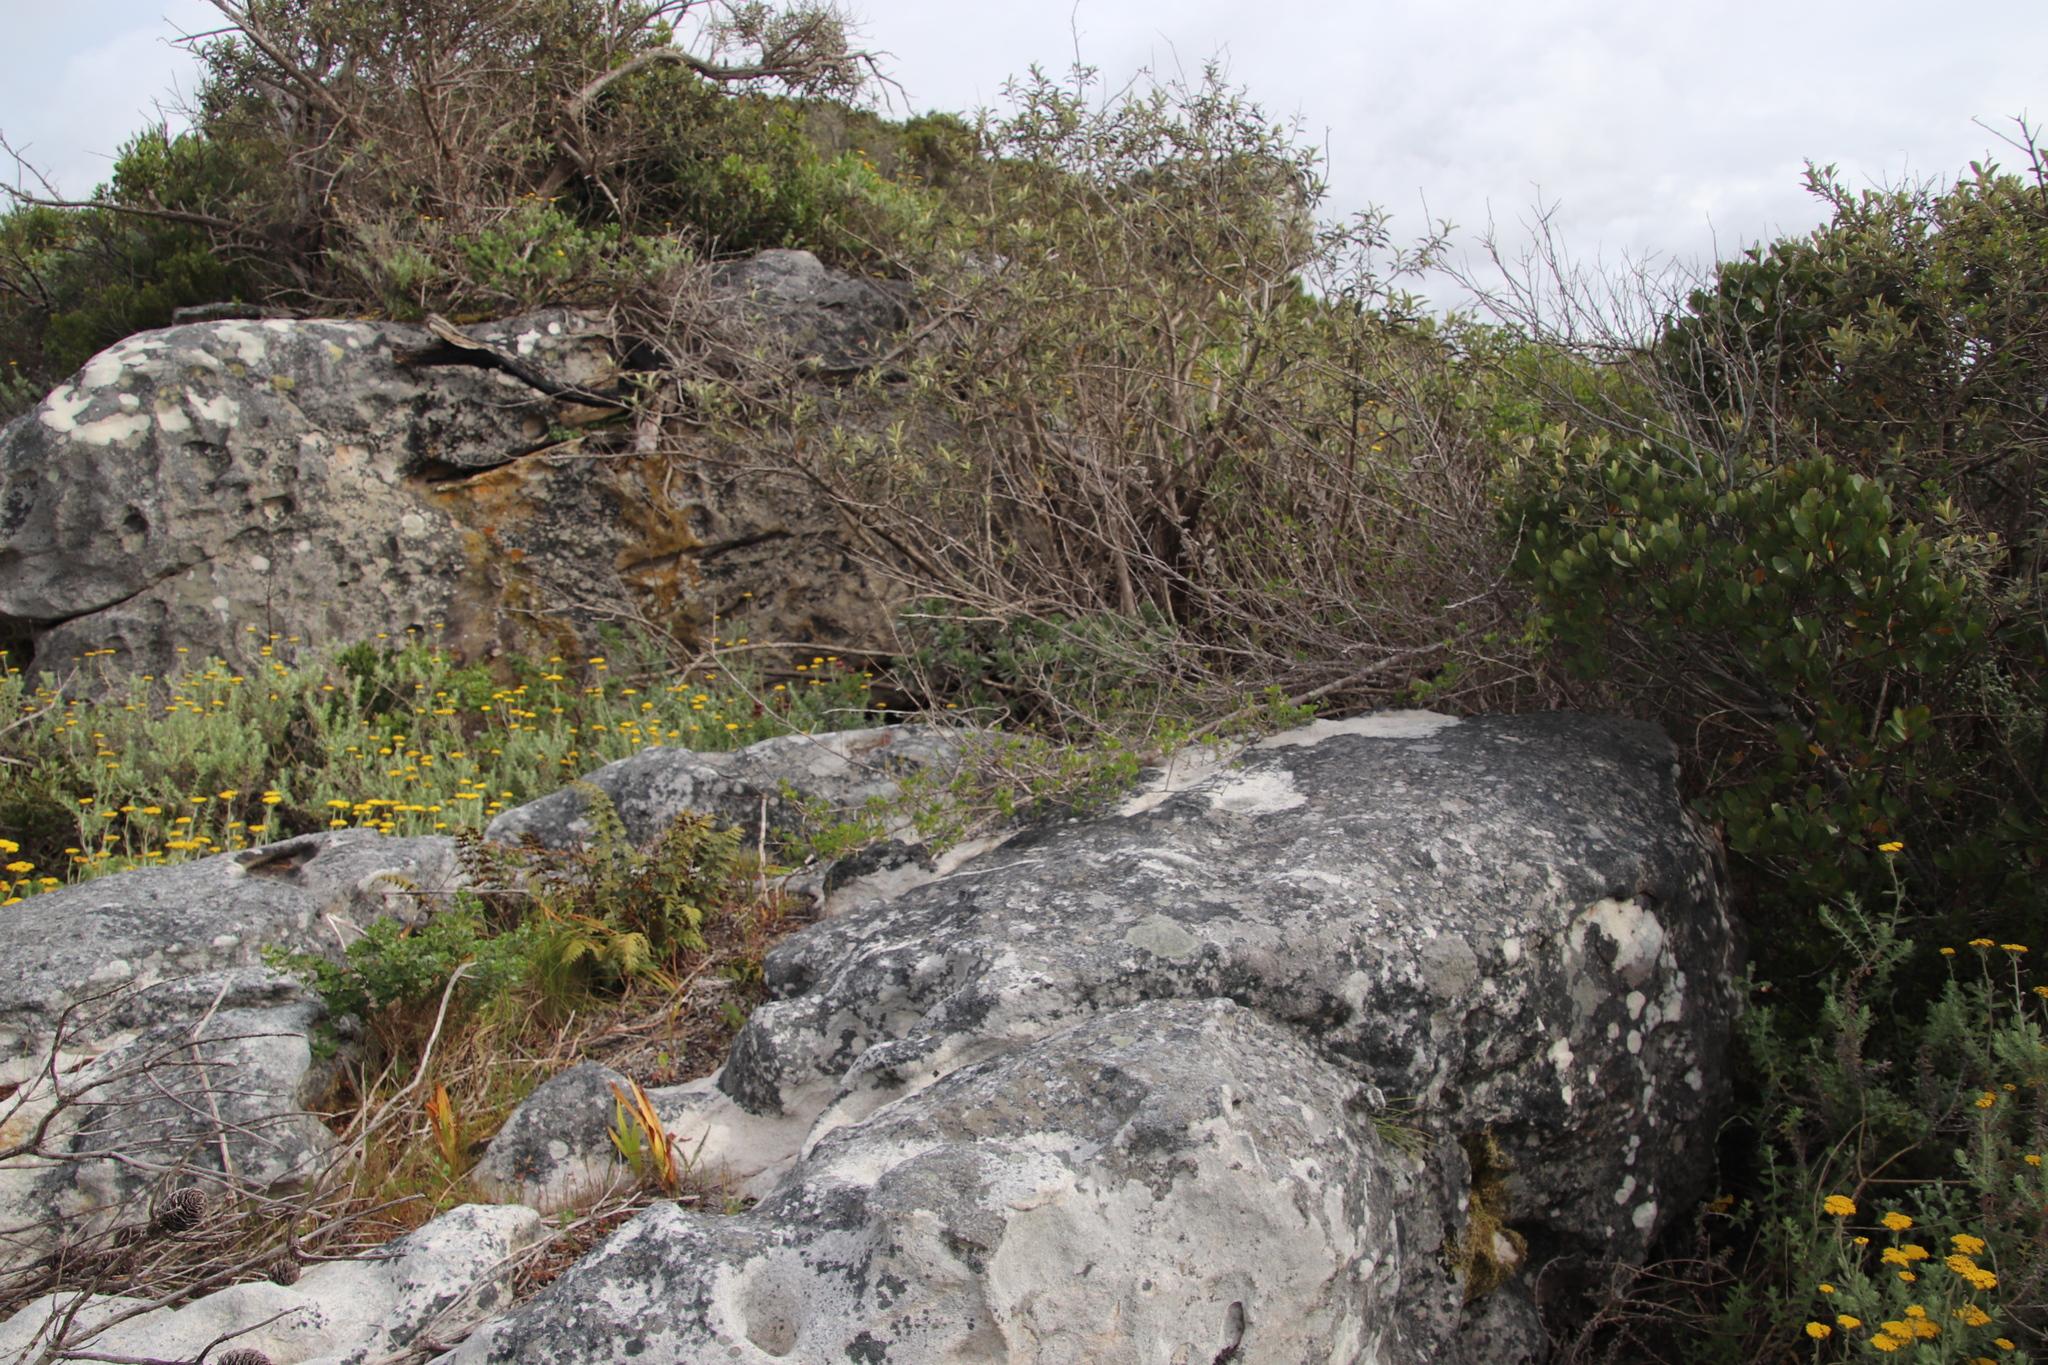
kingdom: Plantae
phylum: Tracheophyta
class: Magnoliopsida
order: Boraginales
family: Boraginaceae
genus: Lobostemon
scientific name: Lobostemon montanus
